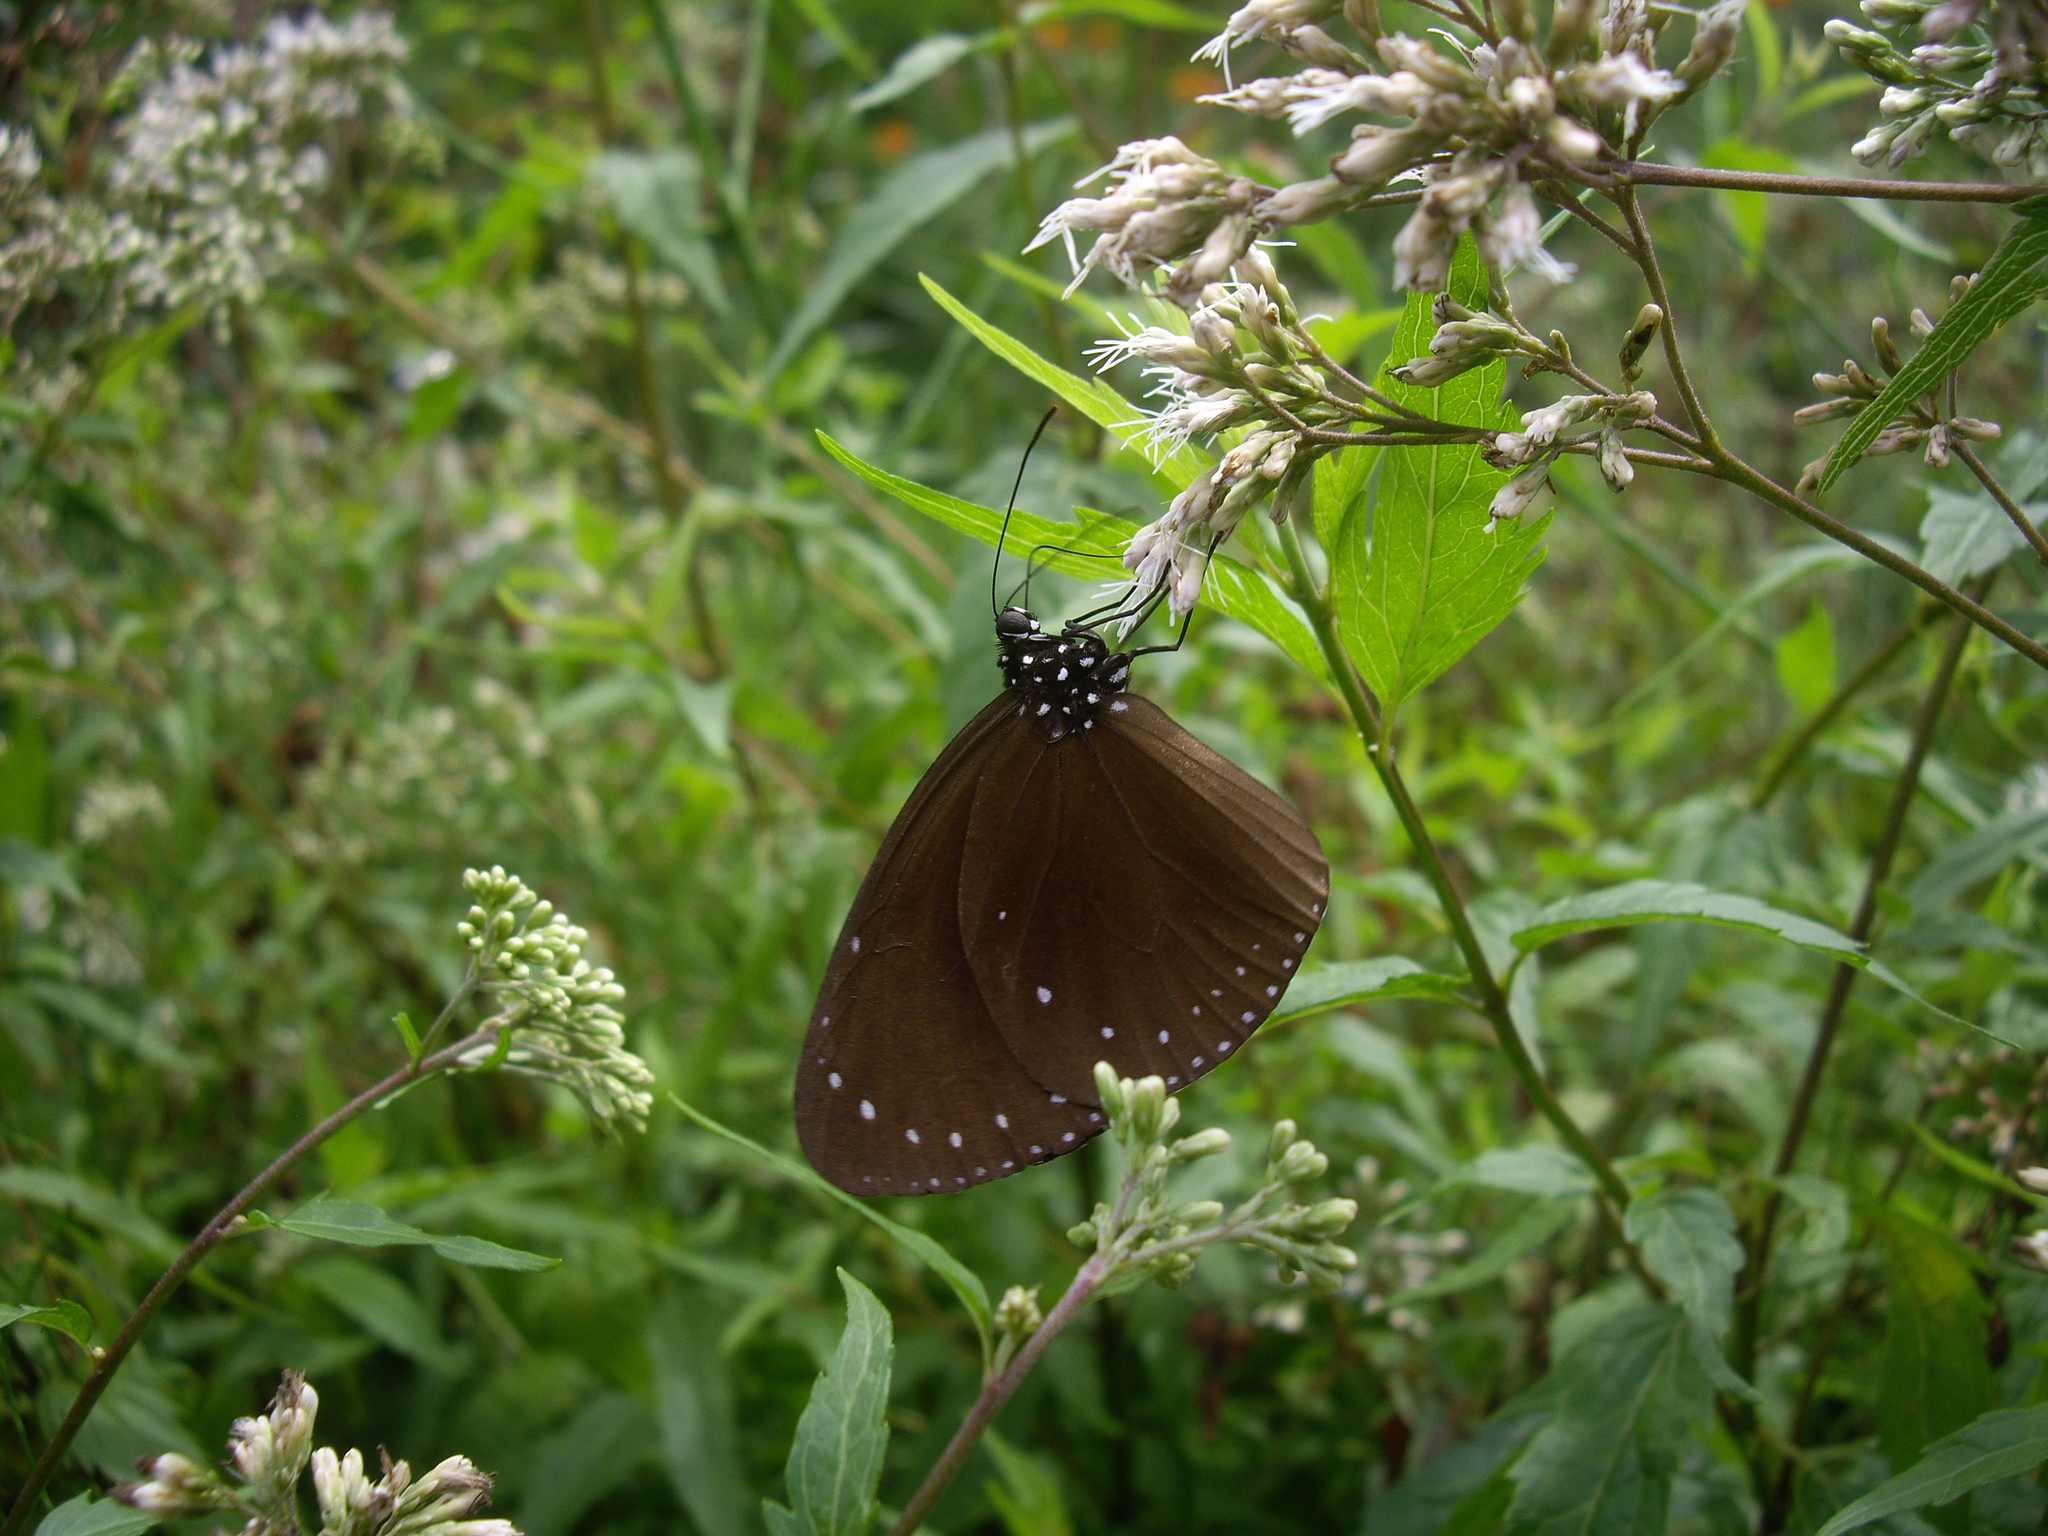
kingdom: Animalia
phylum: Arthropoda
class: Insecta
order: Lepidoptera
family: Nymphalidae
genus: Euploea
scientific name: Euploea tulliolus
